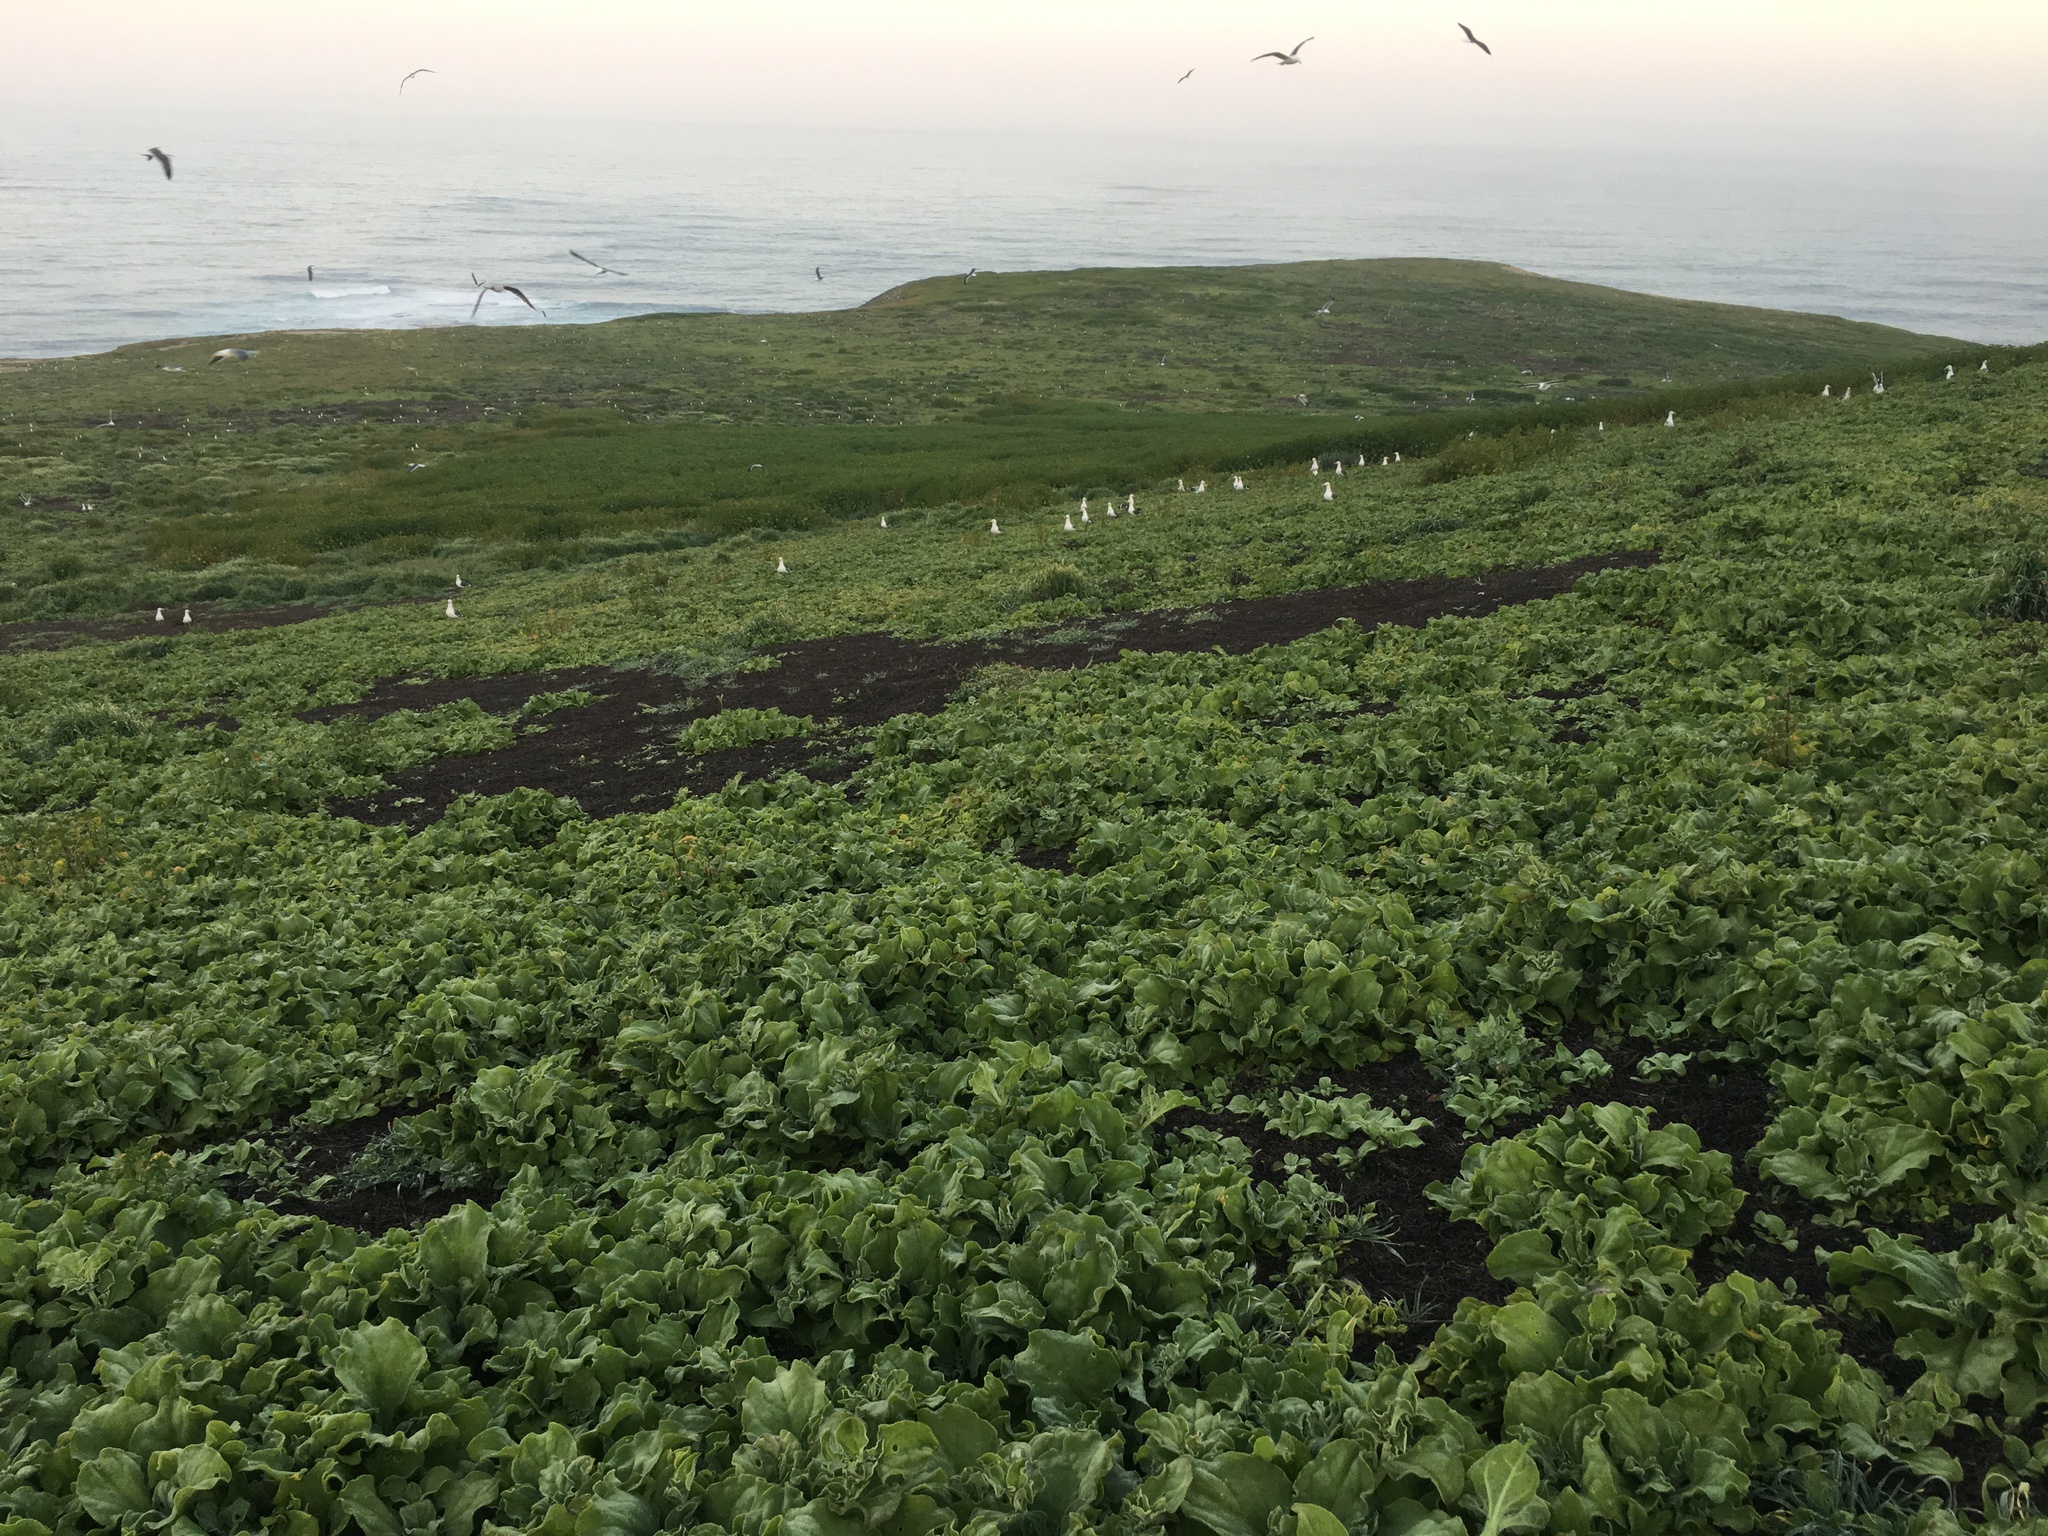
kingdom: Animalia
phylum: Chordata
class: Aves
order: Charadriiformes
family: Laridae
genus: Larus
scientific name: Larus occidentalis
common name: Western gull
